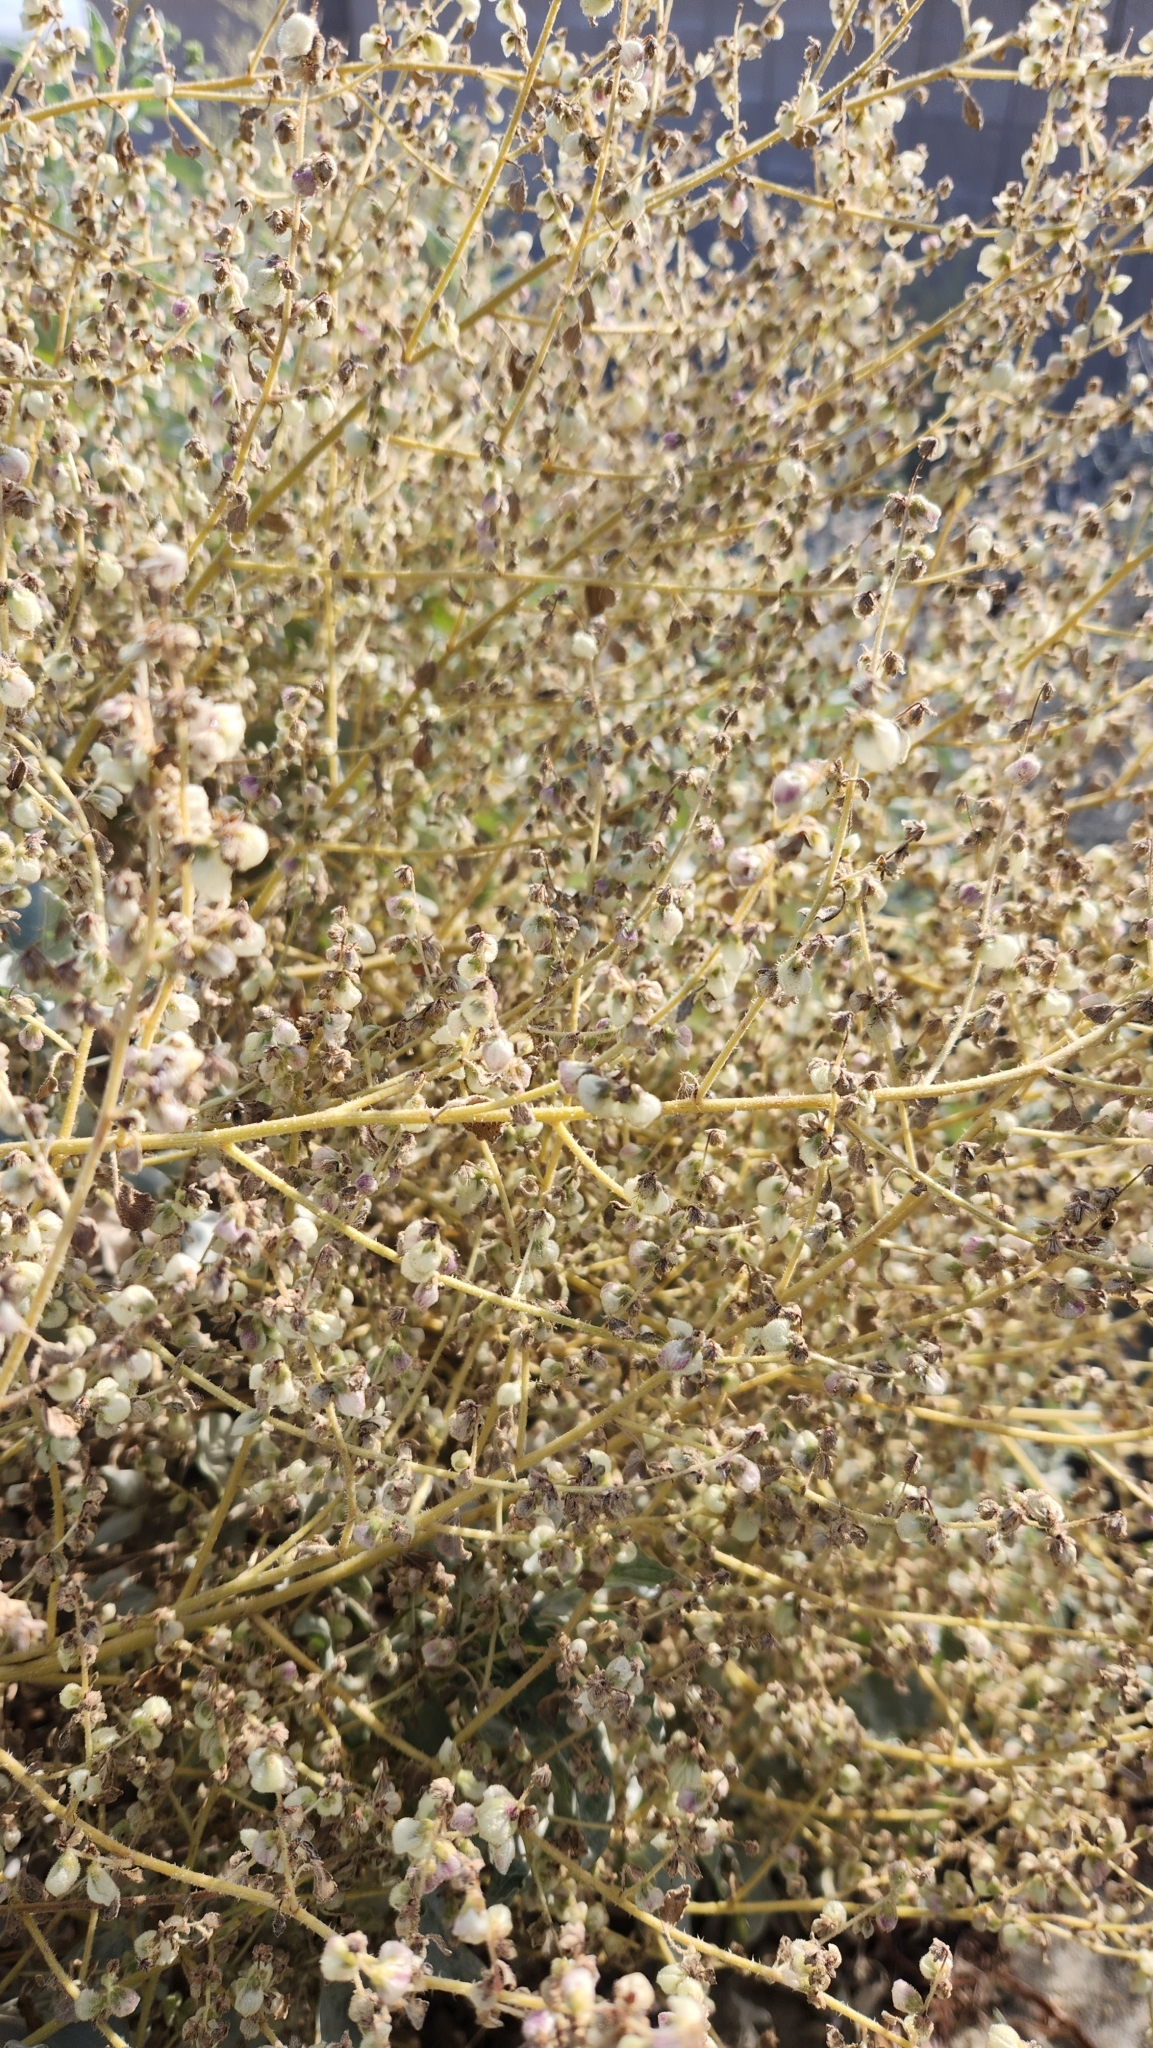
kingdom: Plantae
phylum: Tracheophyta
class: Magnoliopsida
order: Asterales
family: Asteraceae
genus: Dicoria
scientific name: Dicoria canescens
